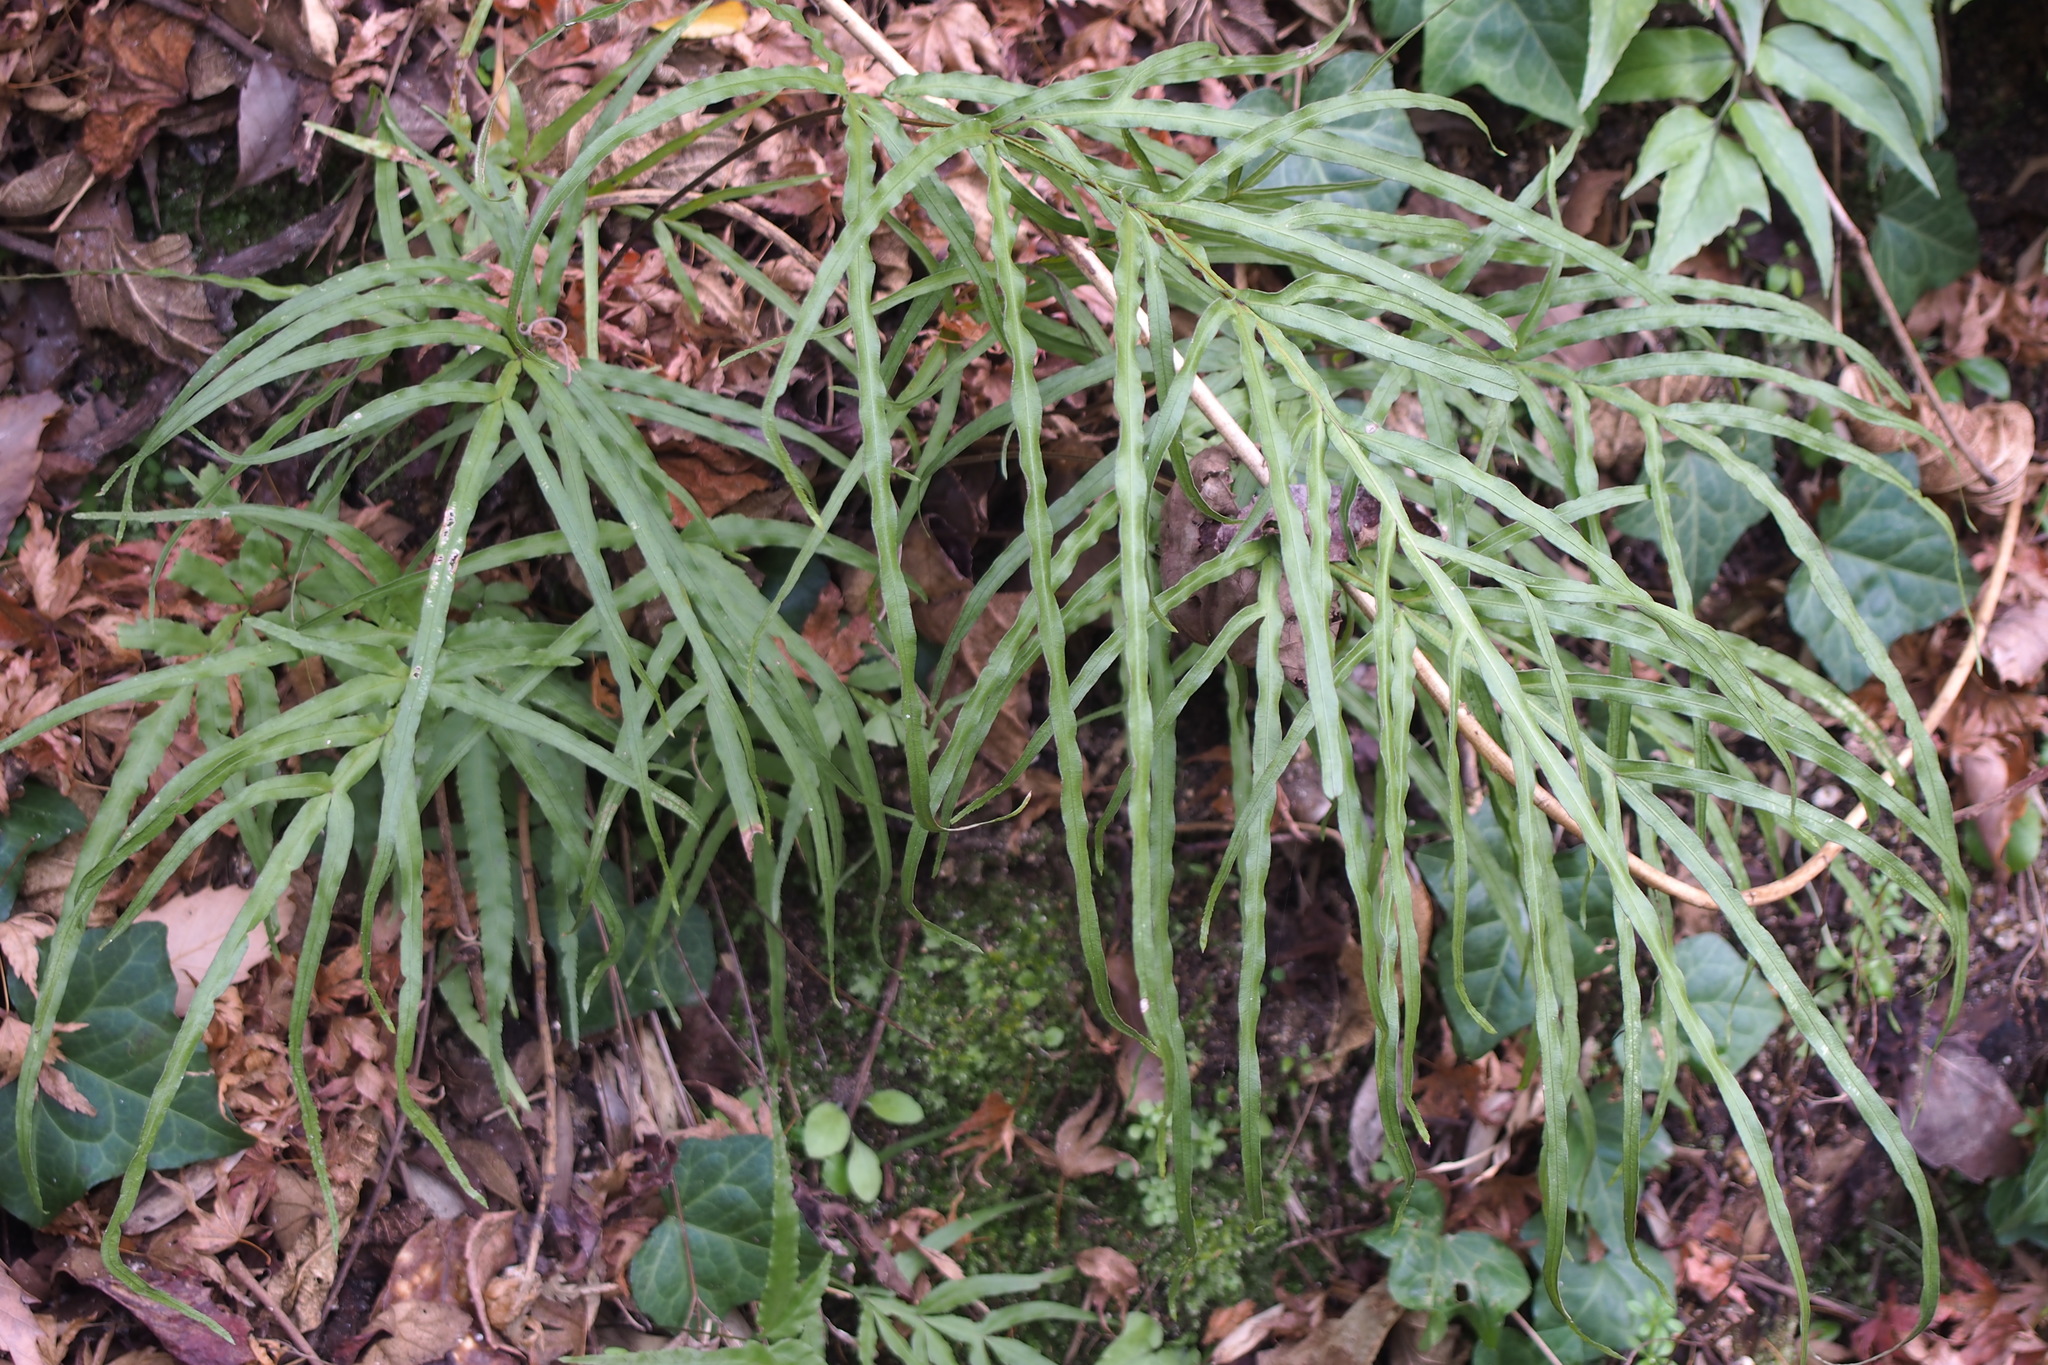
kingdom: Plantae
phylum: Tracheophyta
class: Polypodiopsida
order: Polypodiales
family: Pteridaceae
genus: Pteris
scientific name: Pteris multifida
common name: Spider brake
